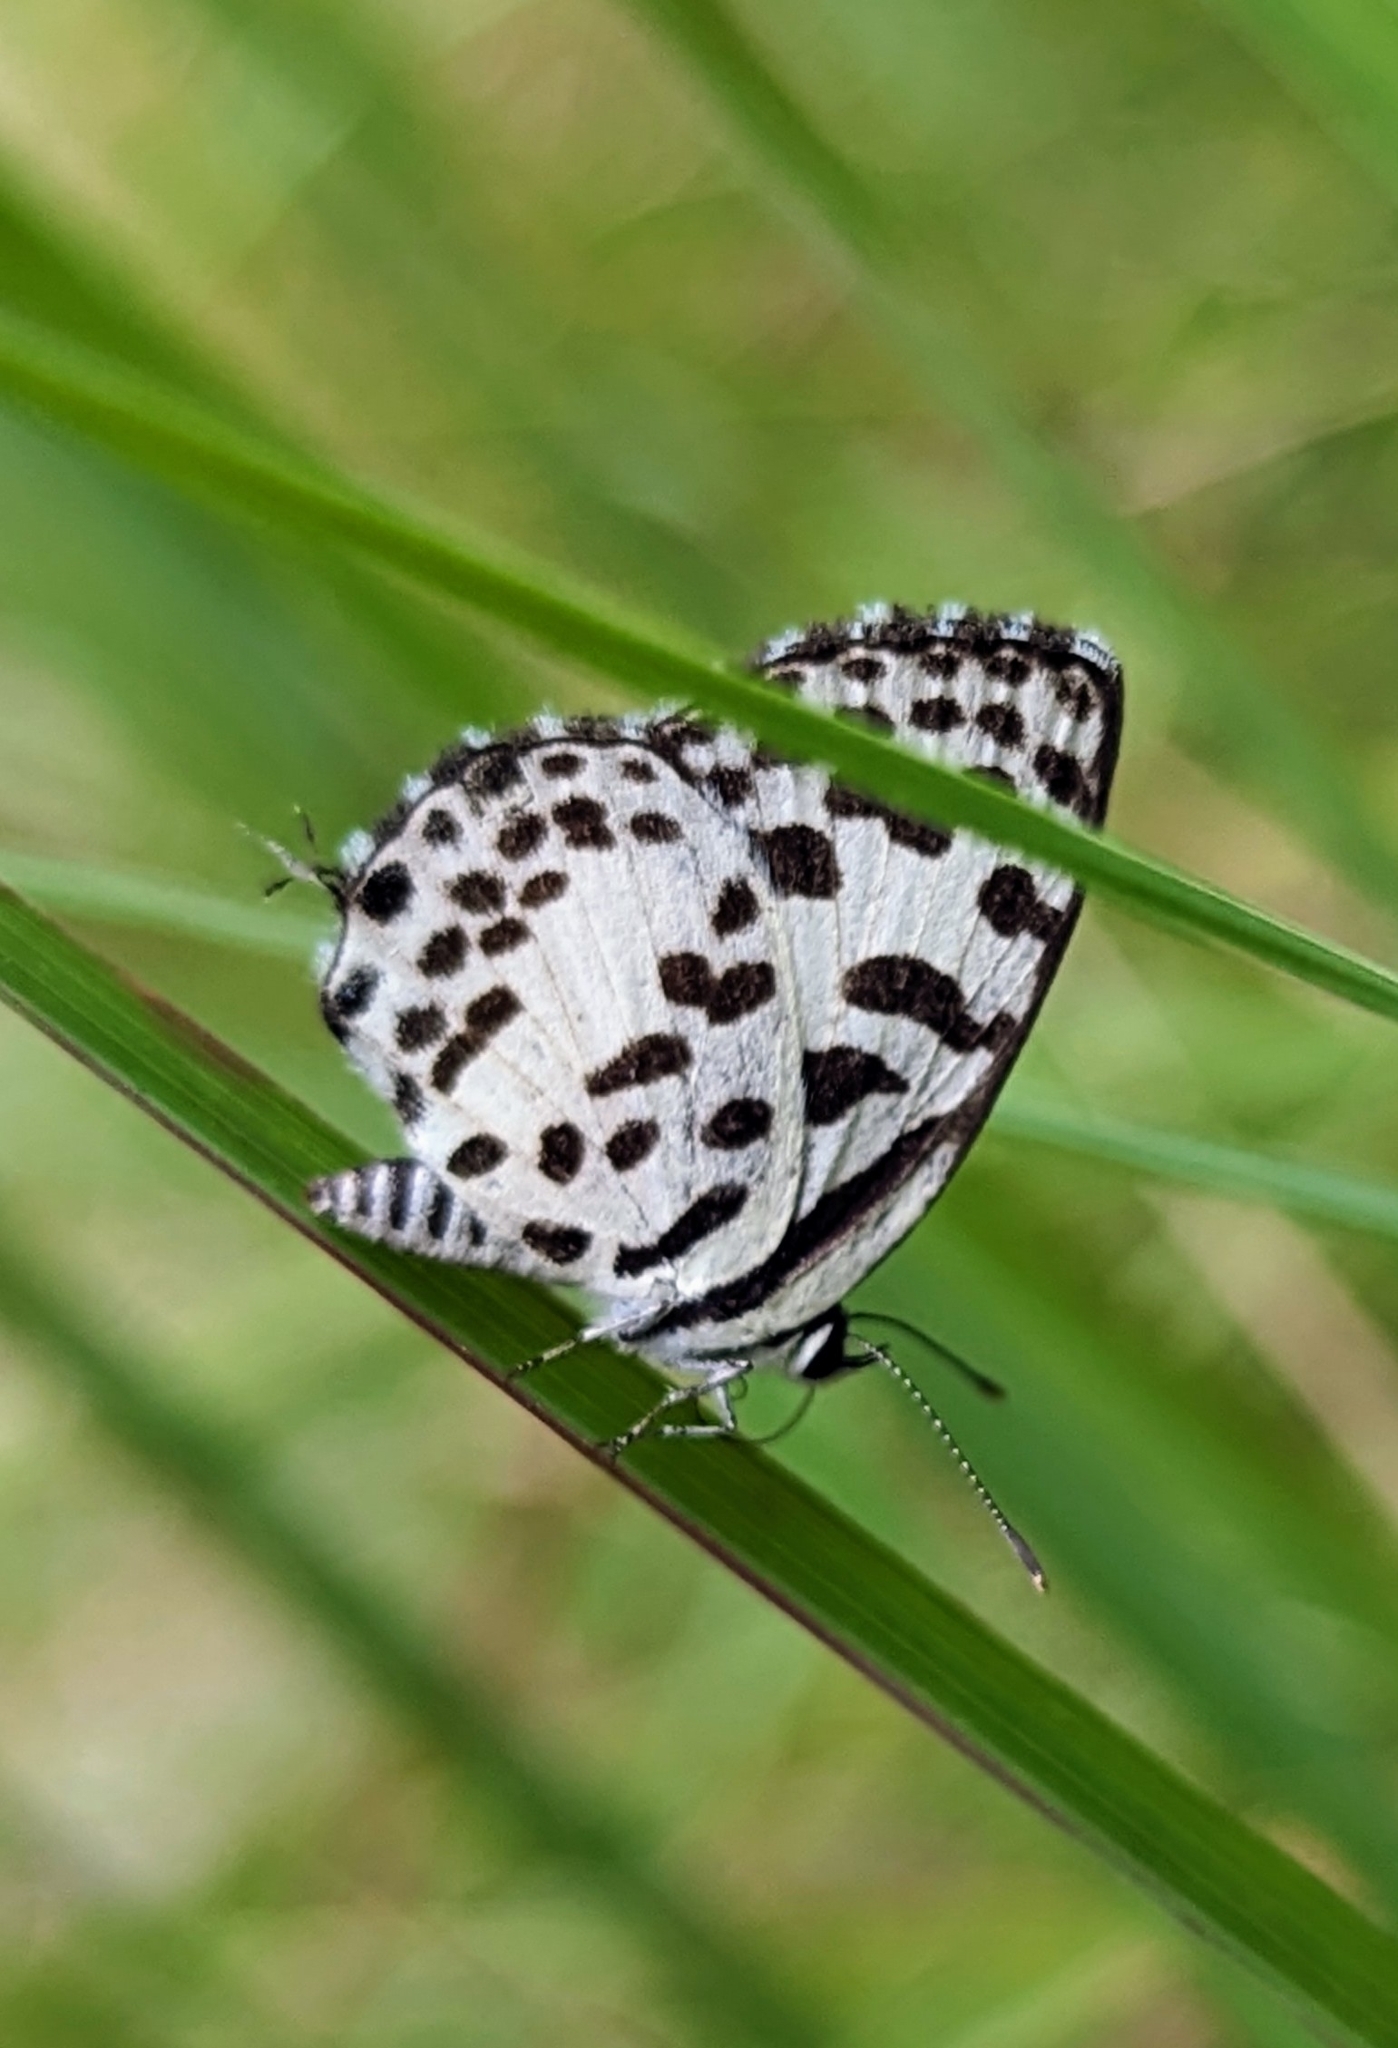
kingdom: Animalia
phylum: Arthropoda
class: Insecta
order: Lepidoptera
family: Lycaenidae
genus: Castalius
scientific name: Castalius rosimon
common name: Common pierrot
